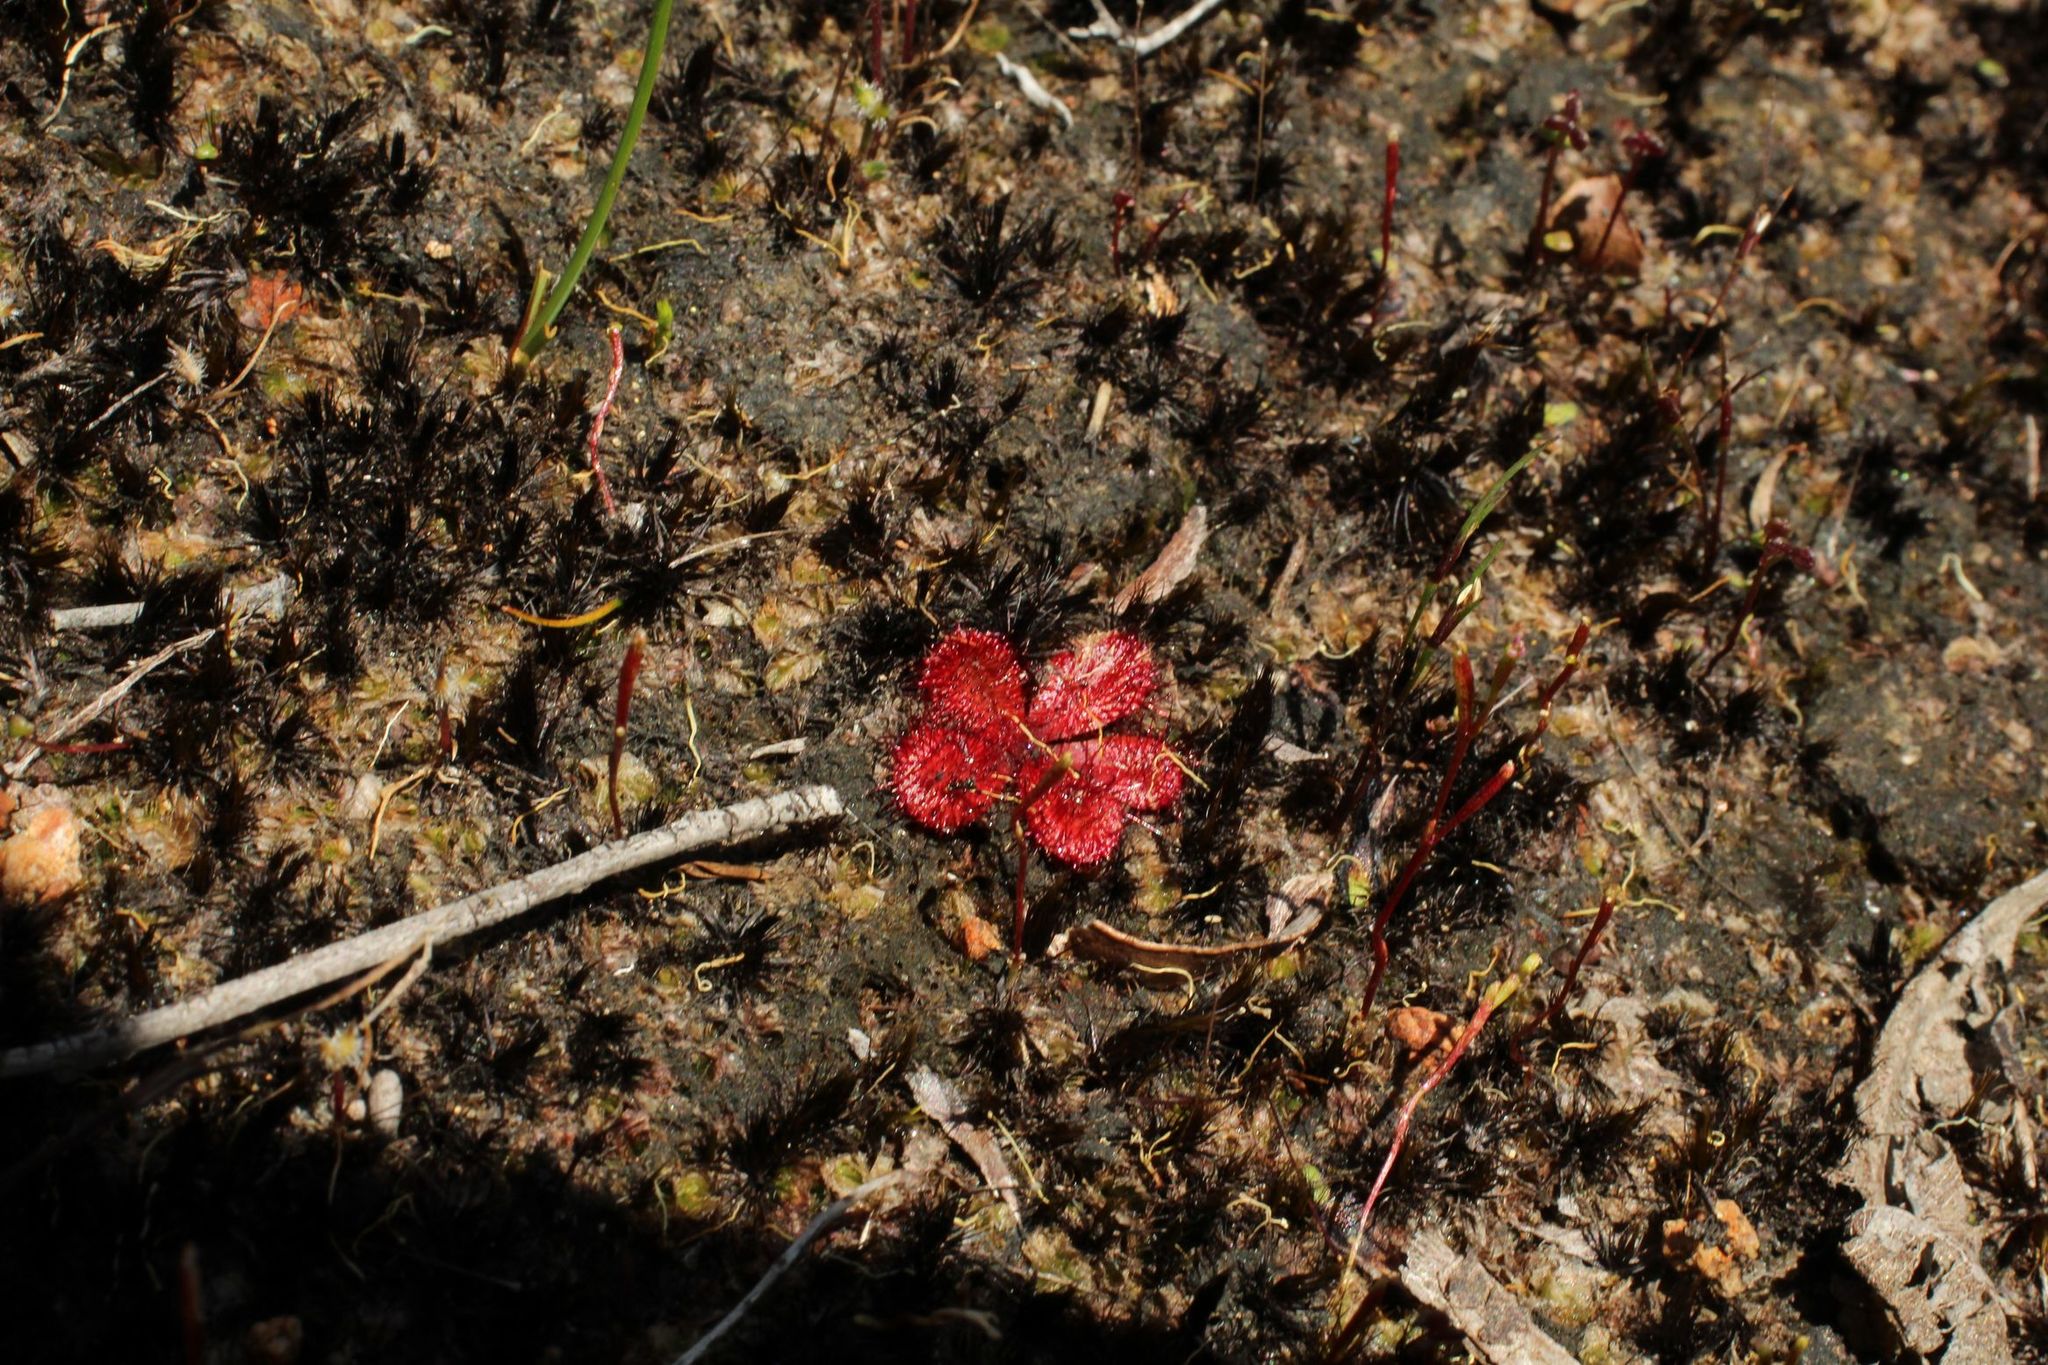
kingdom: Plantae
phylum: Tracheophyta
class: Magnoliopsida
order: Caryophyllales
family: Droseraceae
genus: Drosera
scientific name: Drosera rosulata
